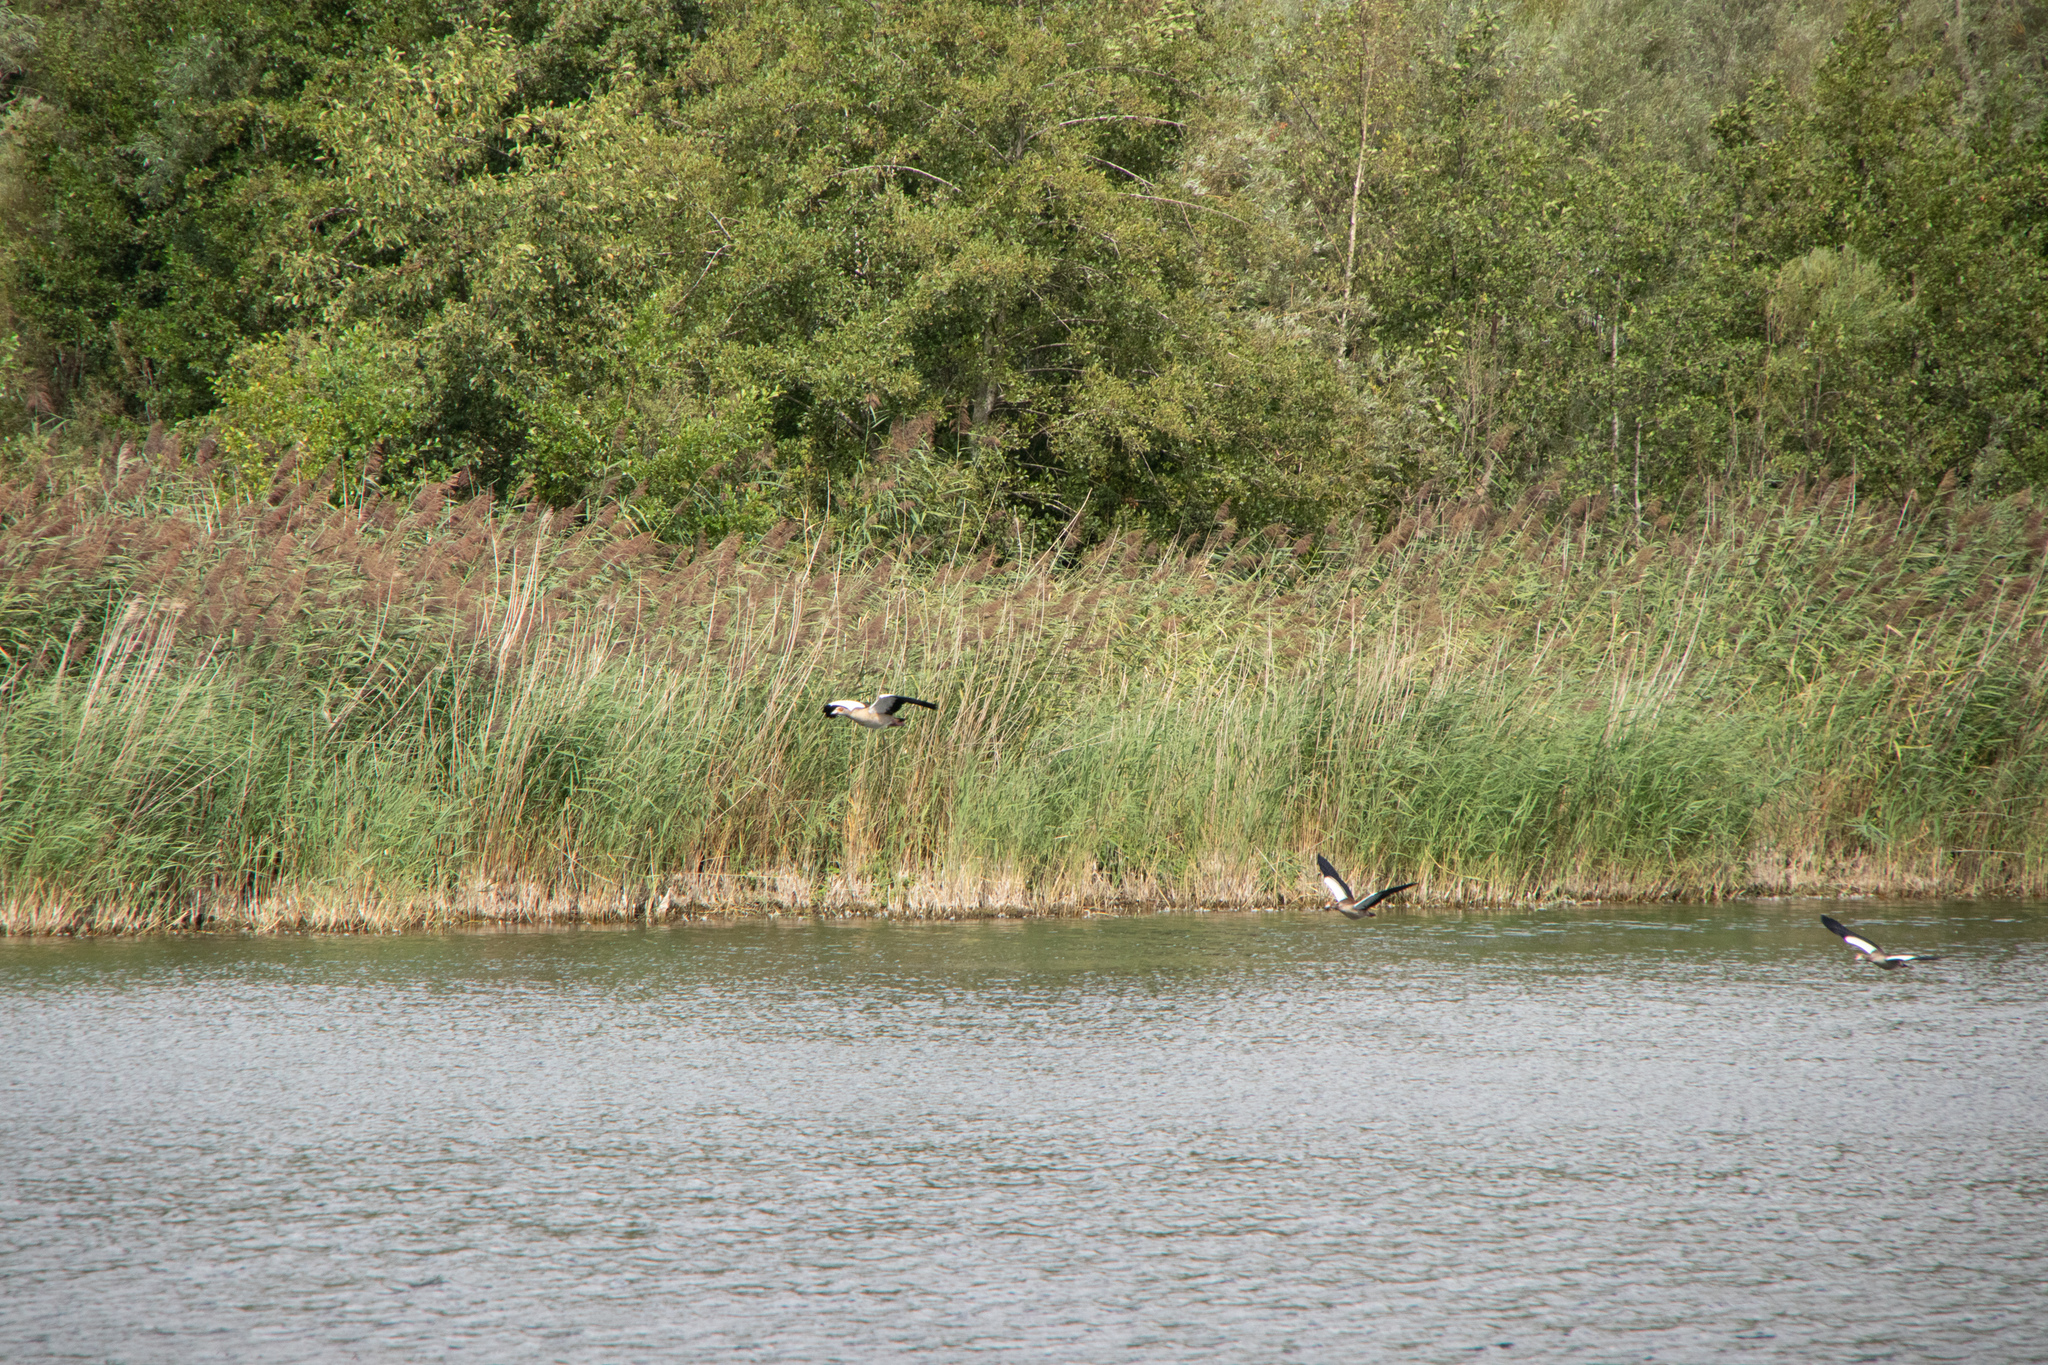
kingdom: Animalia
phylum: Chordata
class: Aves
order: Anseriformes
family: Anatidae
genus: Alopochen
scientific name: Alopochen aegyptiaca
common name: Egyptian goose
